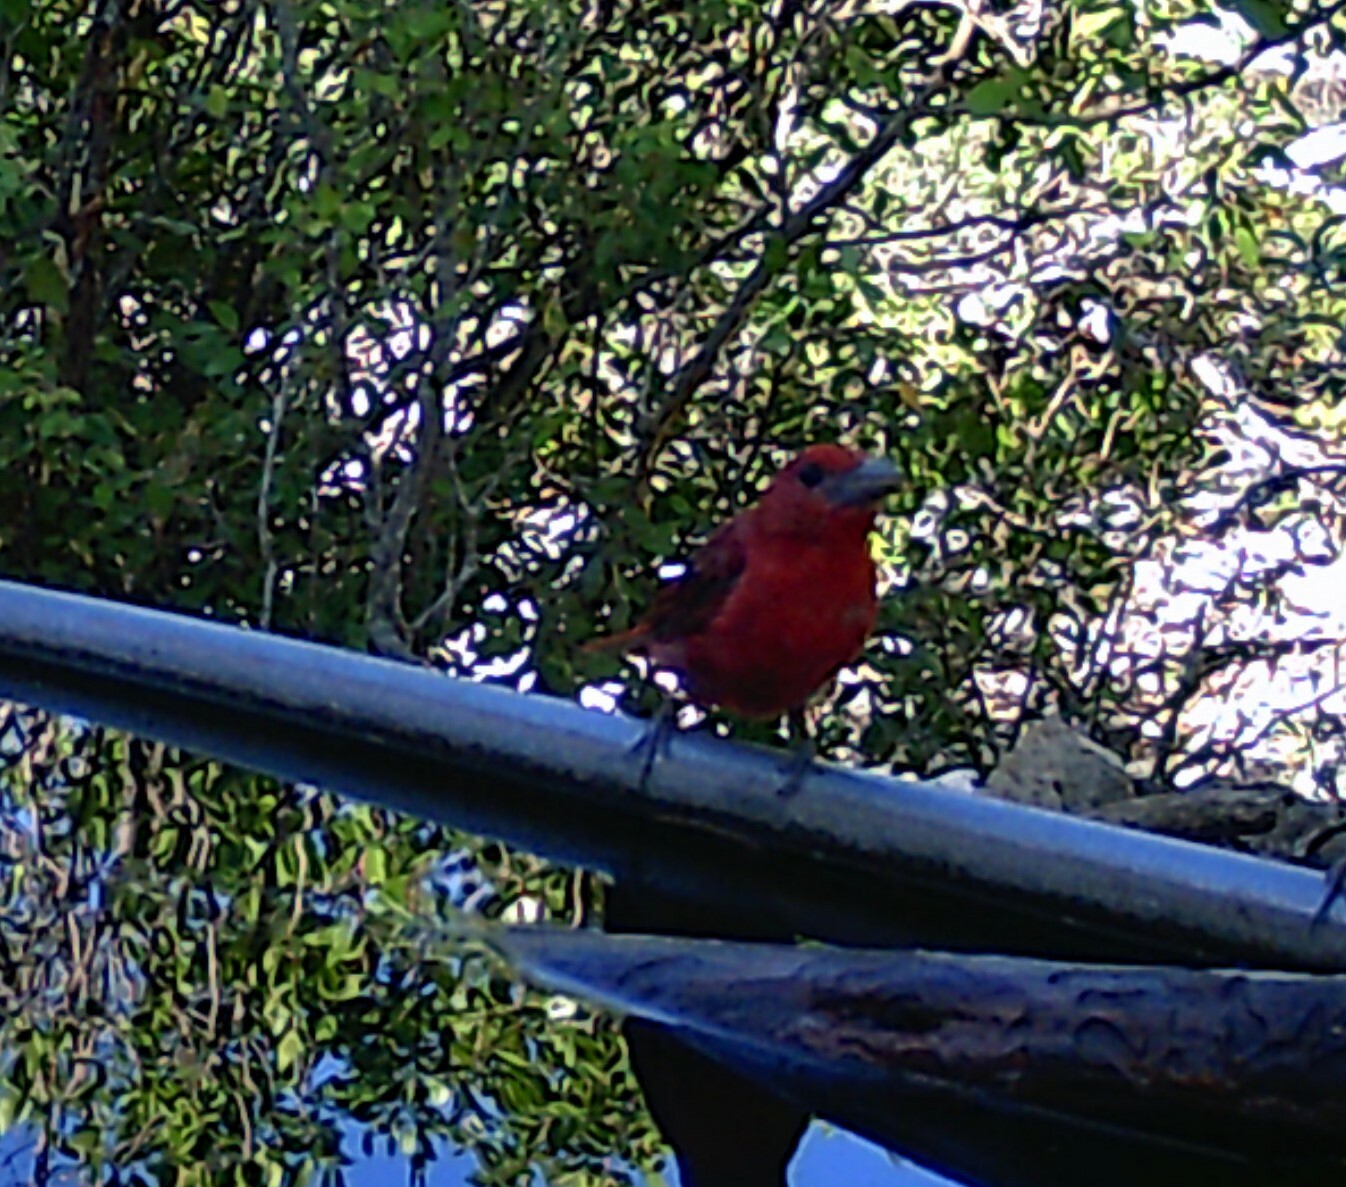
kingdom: Animalia
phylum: Chordata
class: Aves
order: Passeriformes
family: Cardinalidae
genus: Piranga
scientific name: Piranga rubra
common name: Summer tanager
